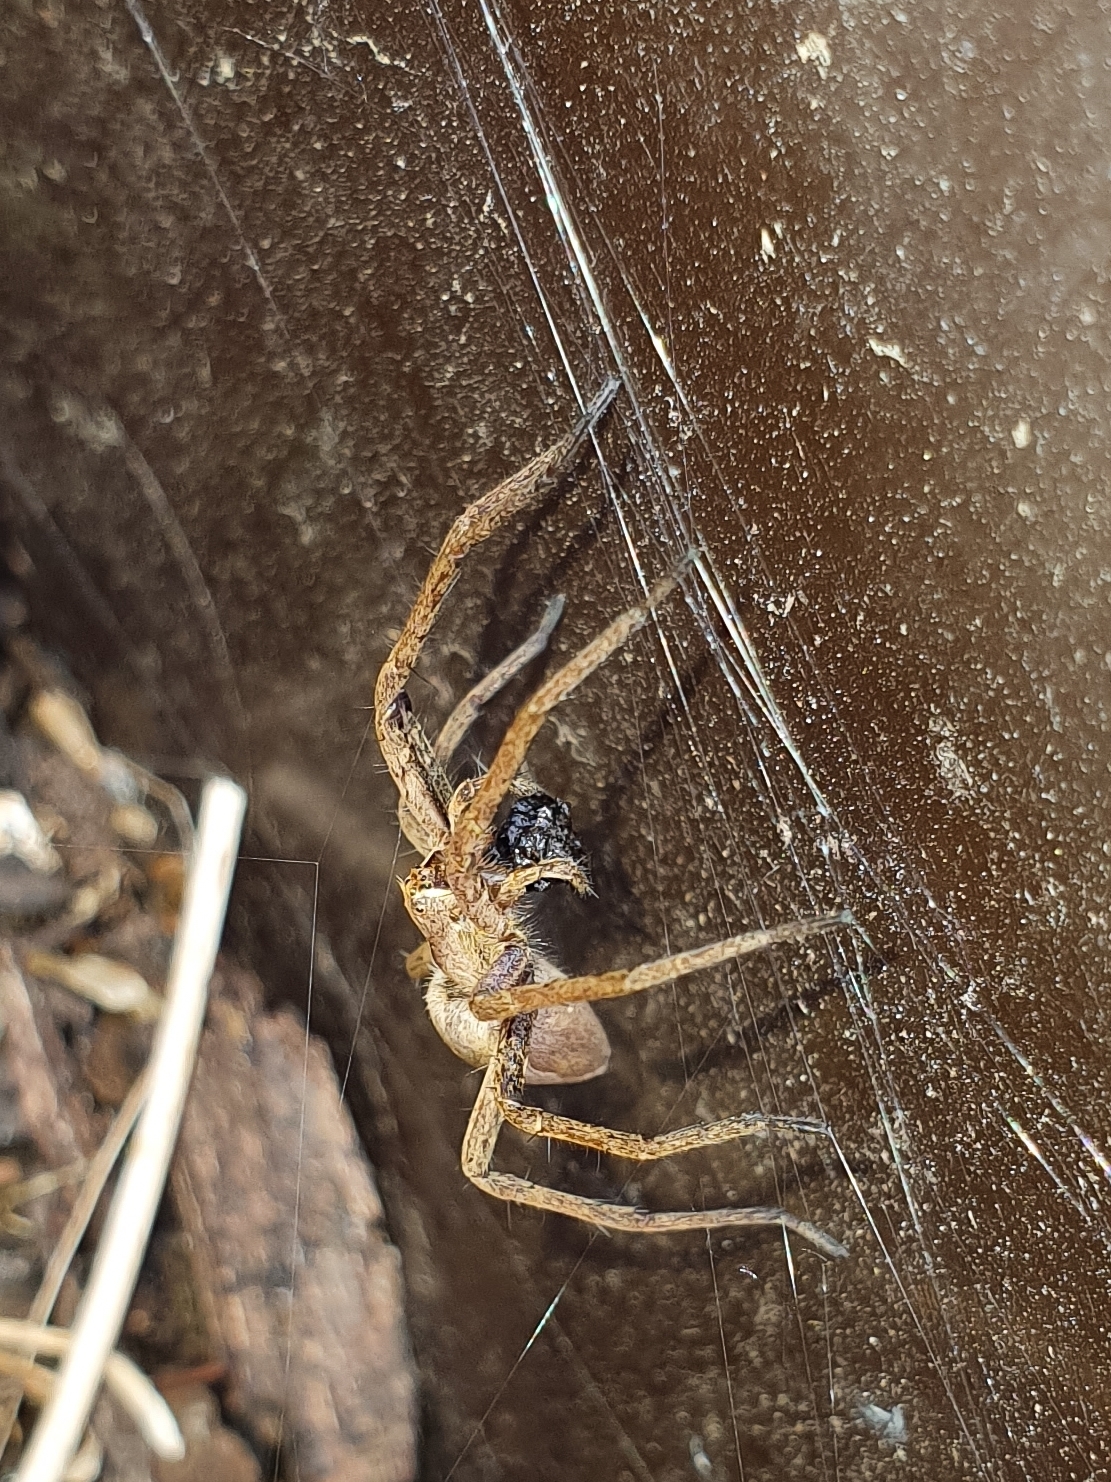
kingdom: Animalia
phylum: Arthropoda
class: Arachnida
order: Araneae
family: Pisauridae
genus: Pisaura
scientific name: Pisaura mirabilis
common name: Tent spider
